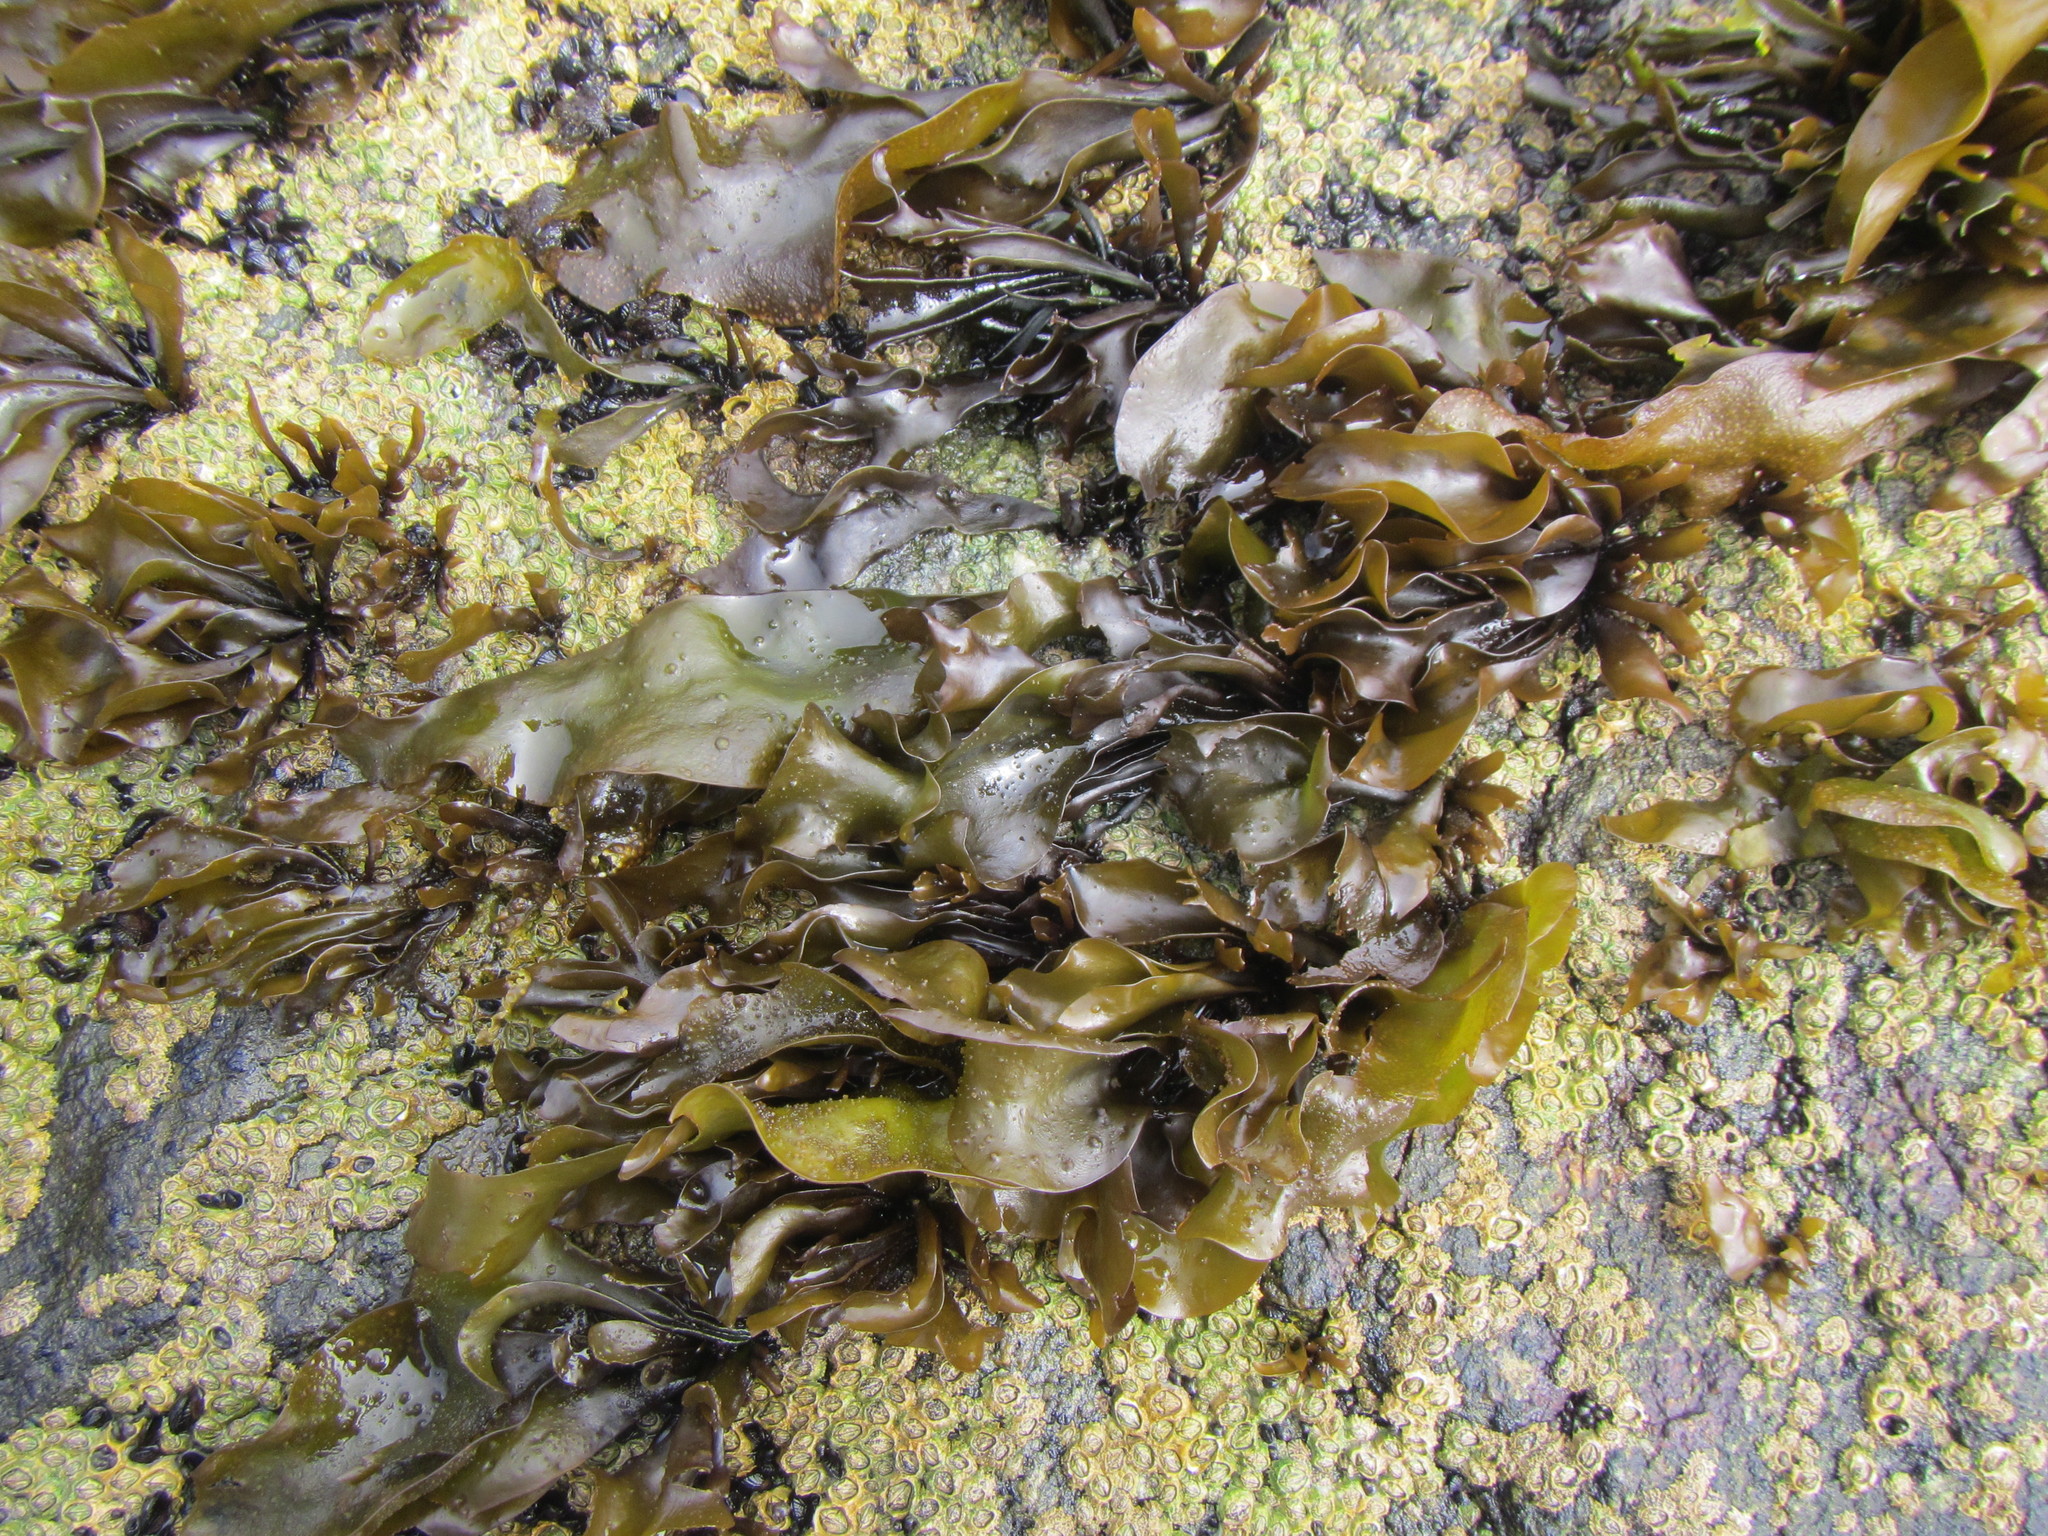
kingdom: Plantae
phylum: Rhodophyta
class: Florideophyceae
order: Gigartinales
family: Gigartinaceae
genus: Mazzaella
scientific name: Mazzaella laminarioides
